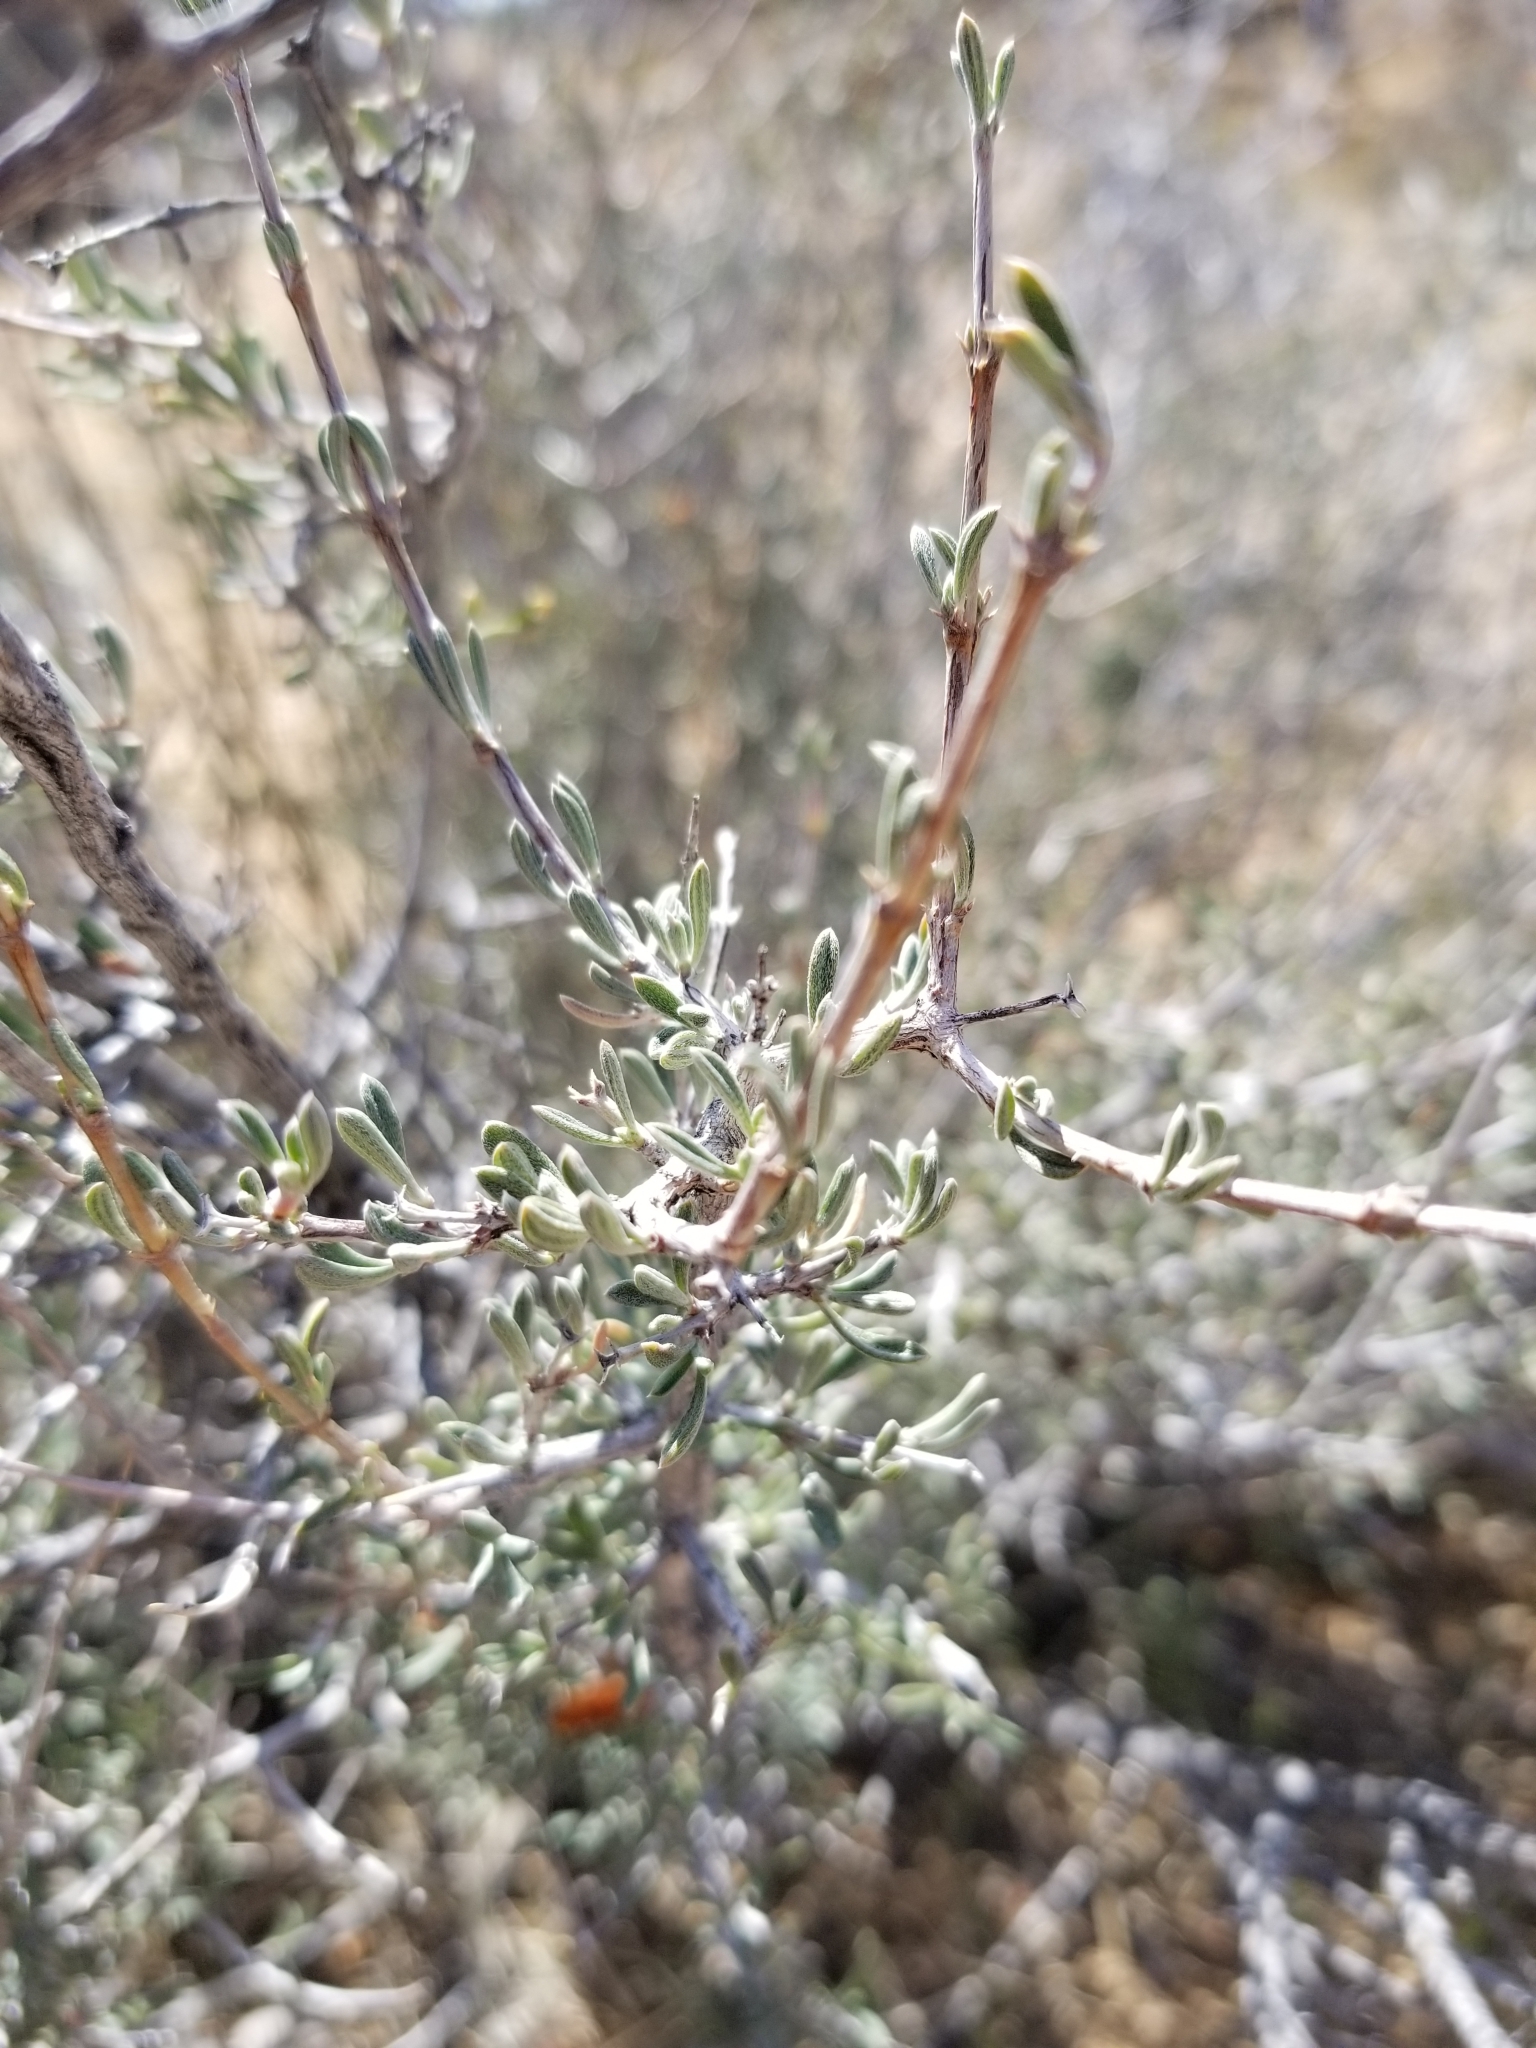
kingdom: Plantae
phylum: Tracheophyta
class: Magnoliopsida
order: Rosales
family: Rosaceae
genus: Coleogyne
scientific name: Coleogyne ramosissima
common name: Blackbrush
